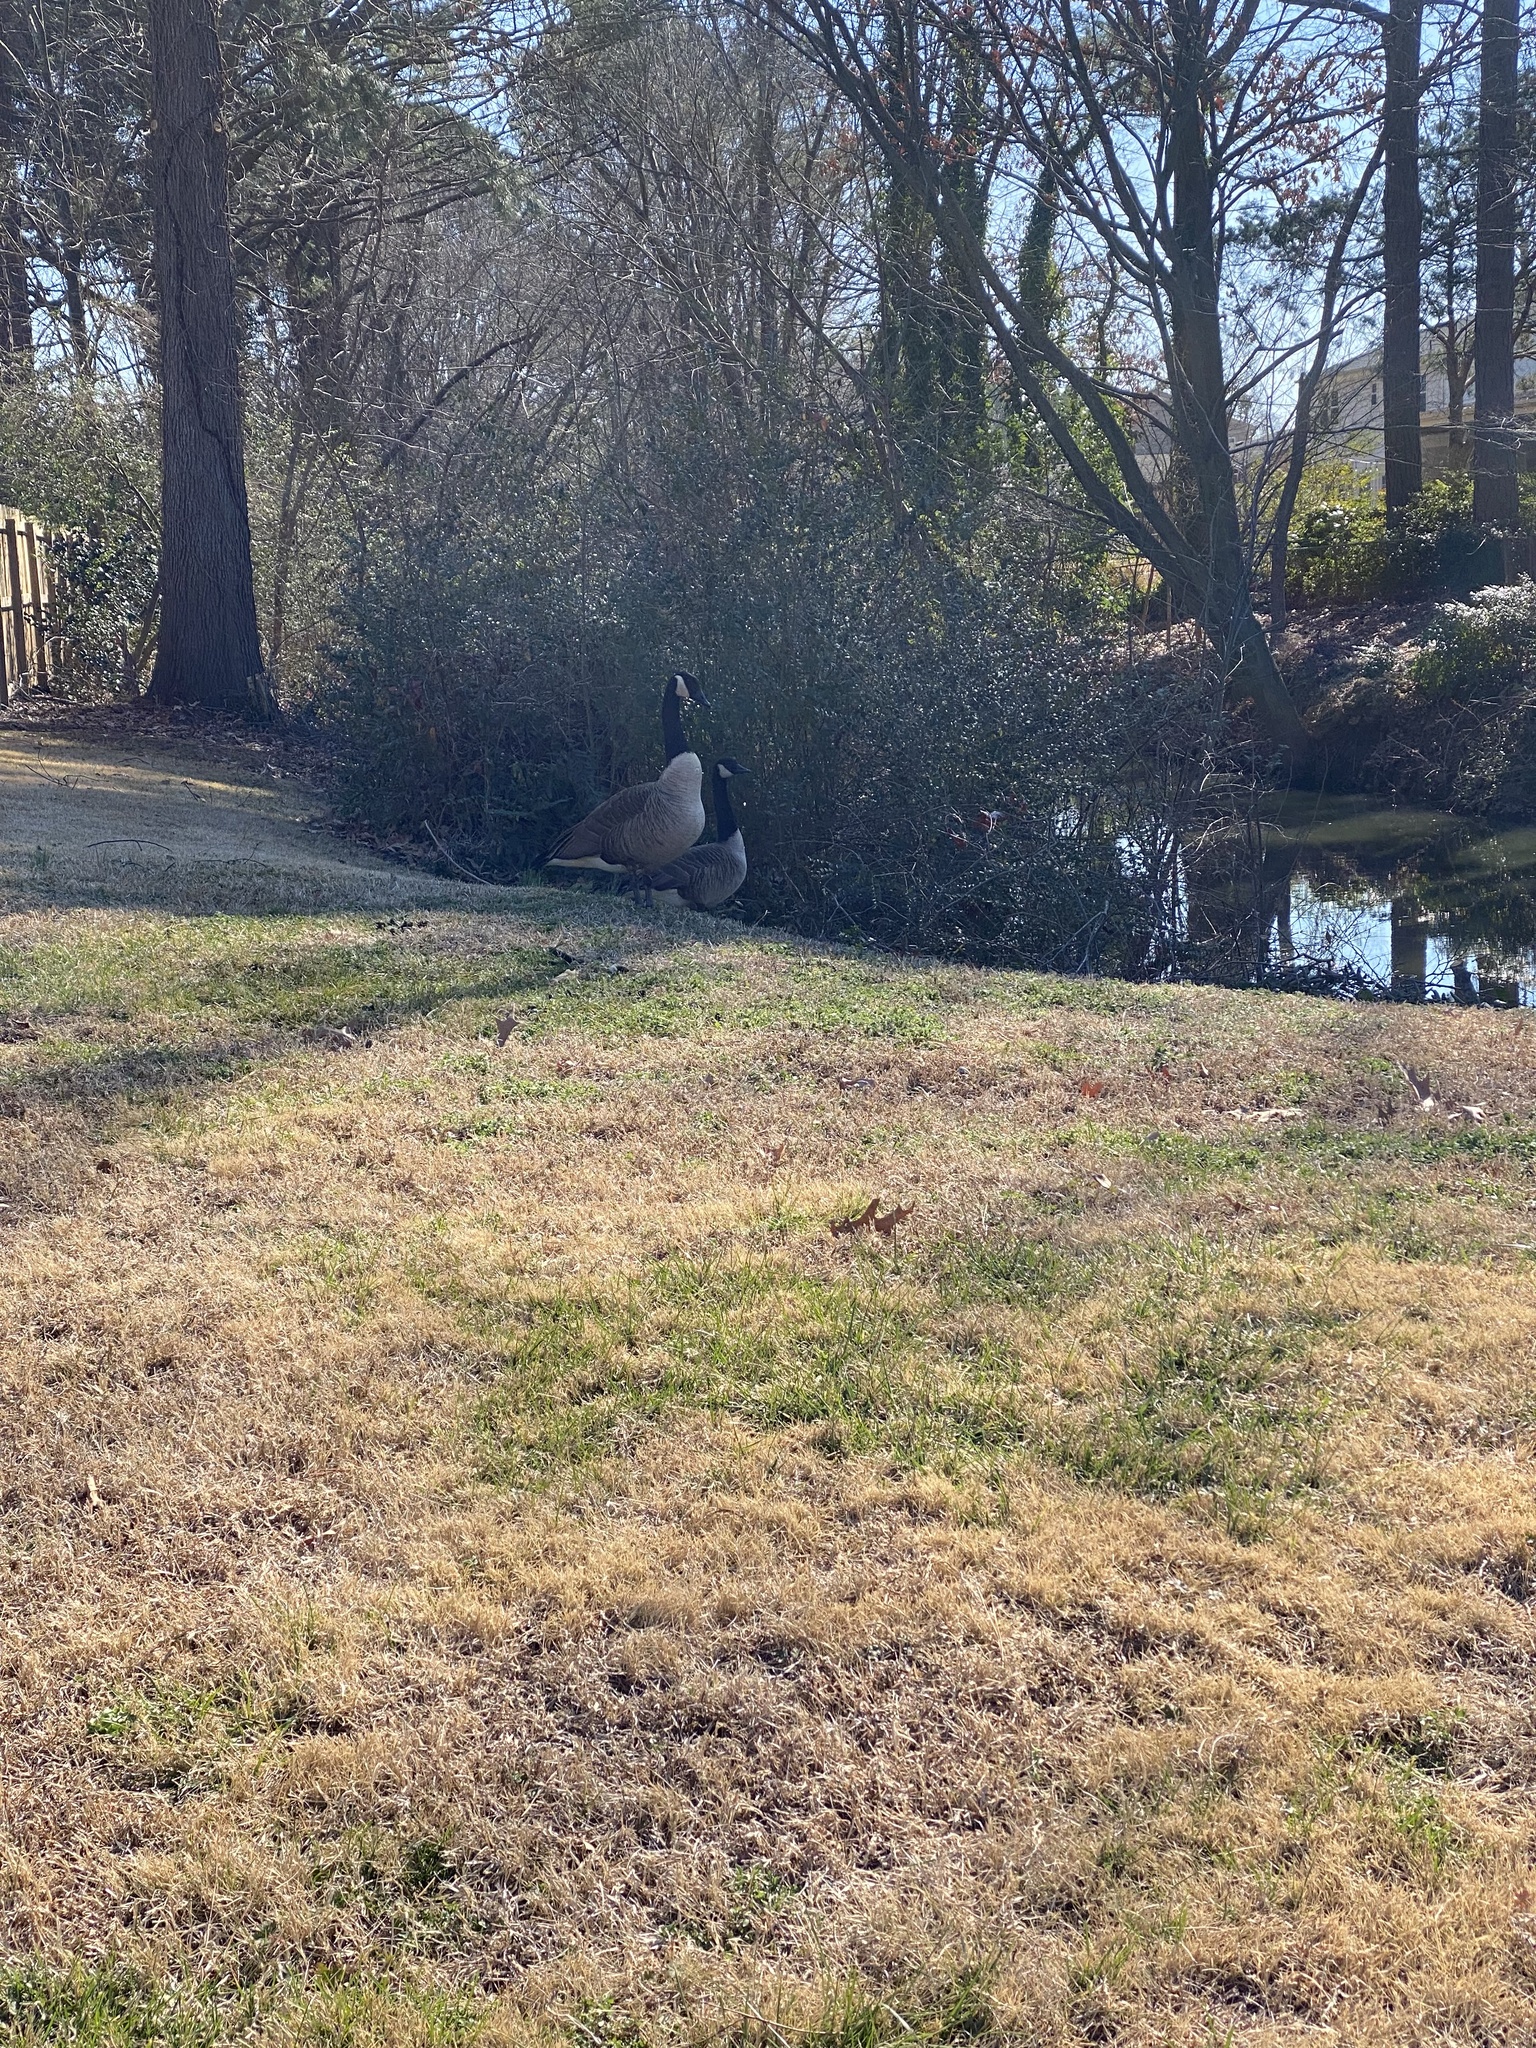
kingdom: Animalia
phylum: Chordata
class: Aves
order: Anseriformes
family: Anatidae
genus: Branta
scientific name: Branta canadensis
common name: Canada goose
